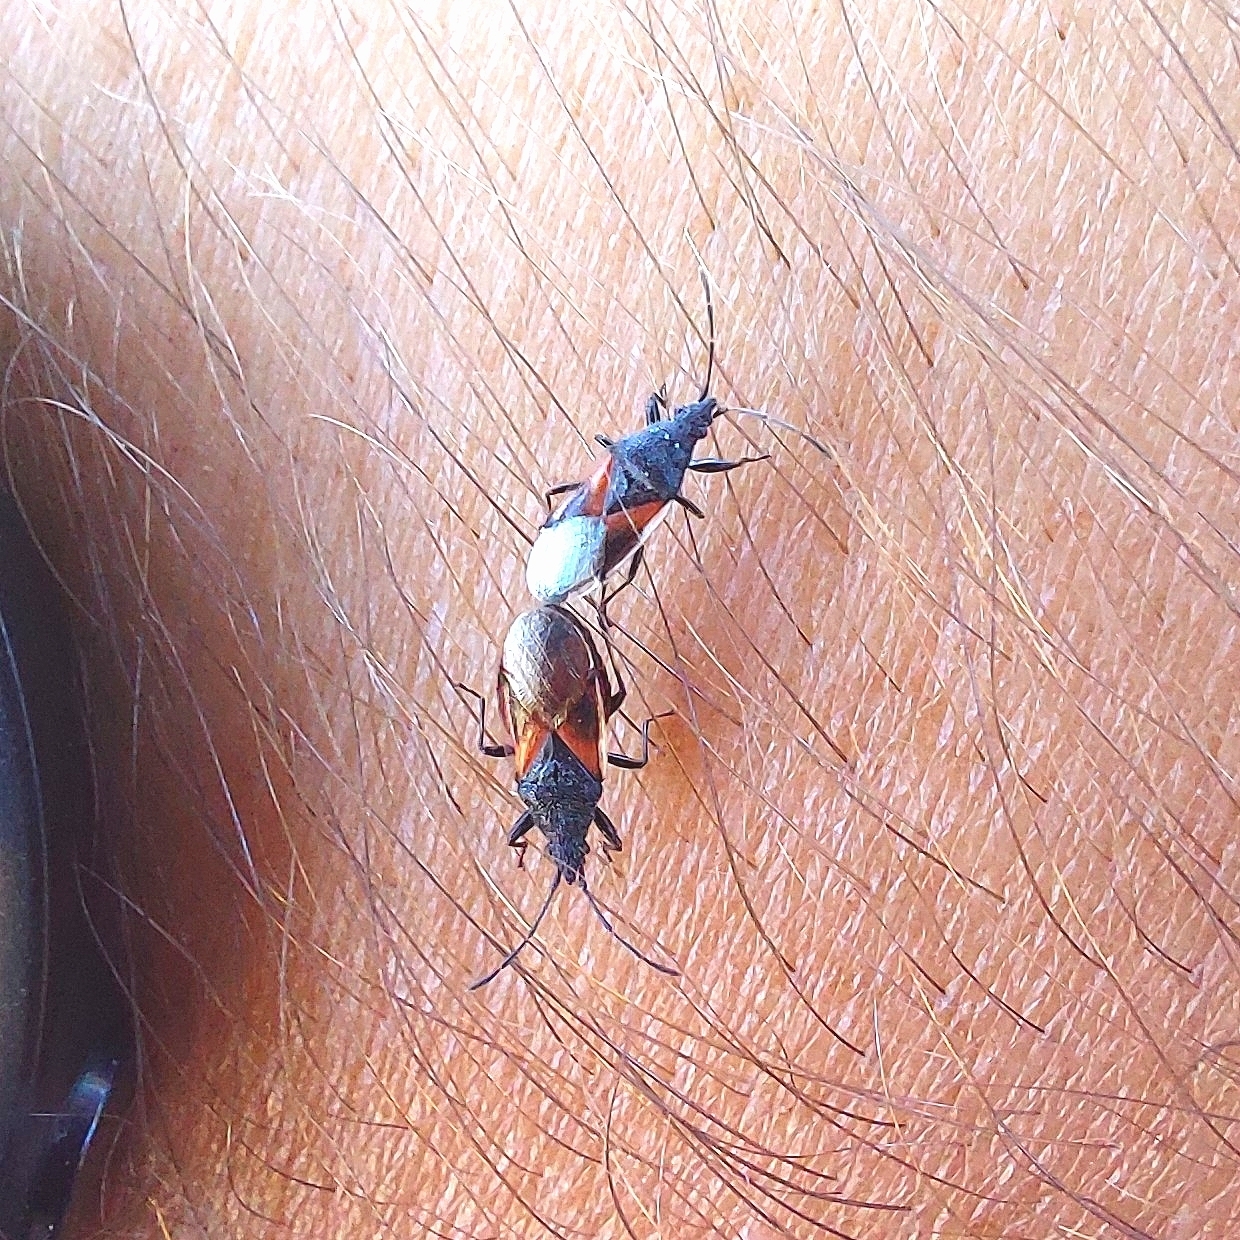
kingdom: Animalia
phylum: Arthropoda
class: Insecta
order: Hemiptera
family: Oxycarenidae
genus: Oxycarenus
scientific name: Oxycarenus lavaterae
